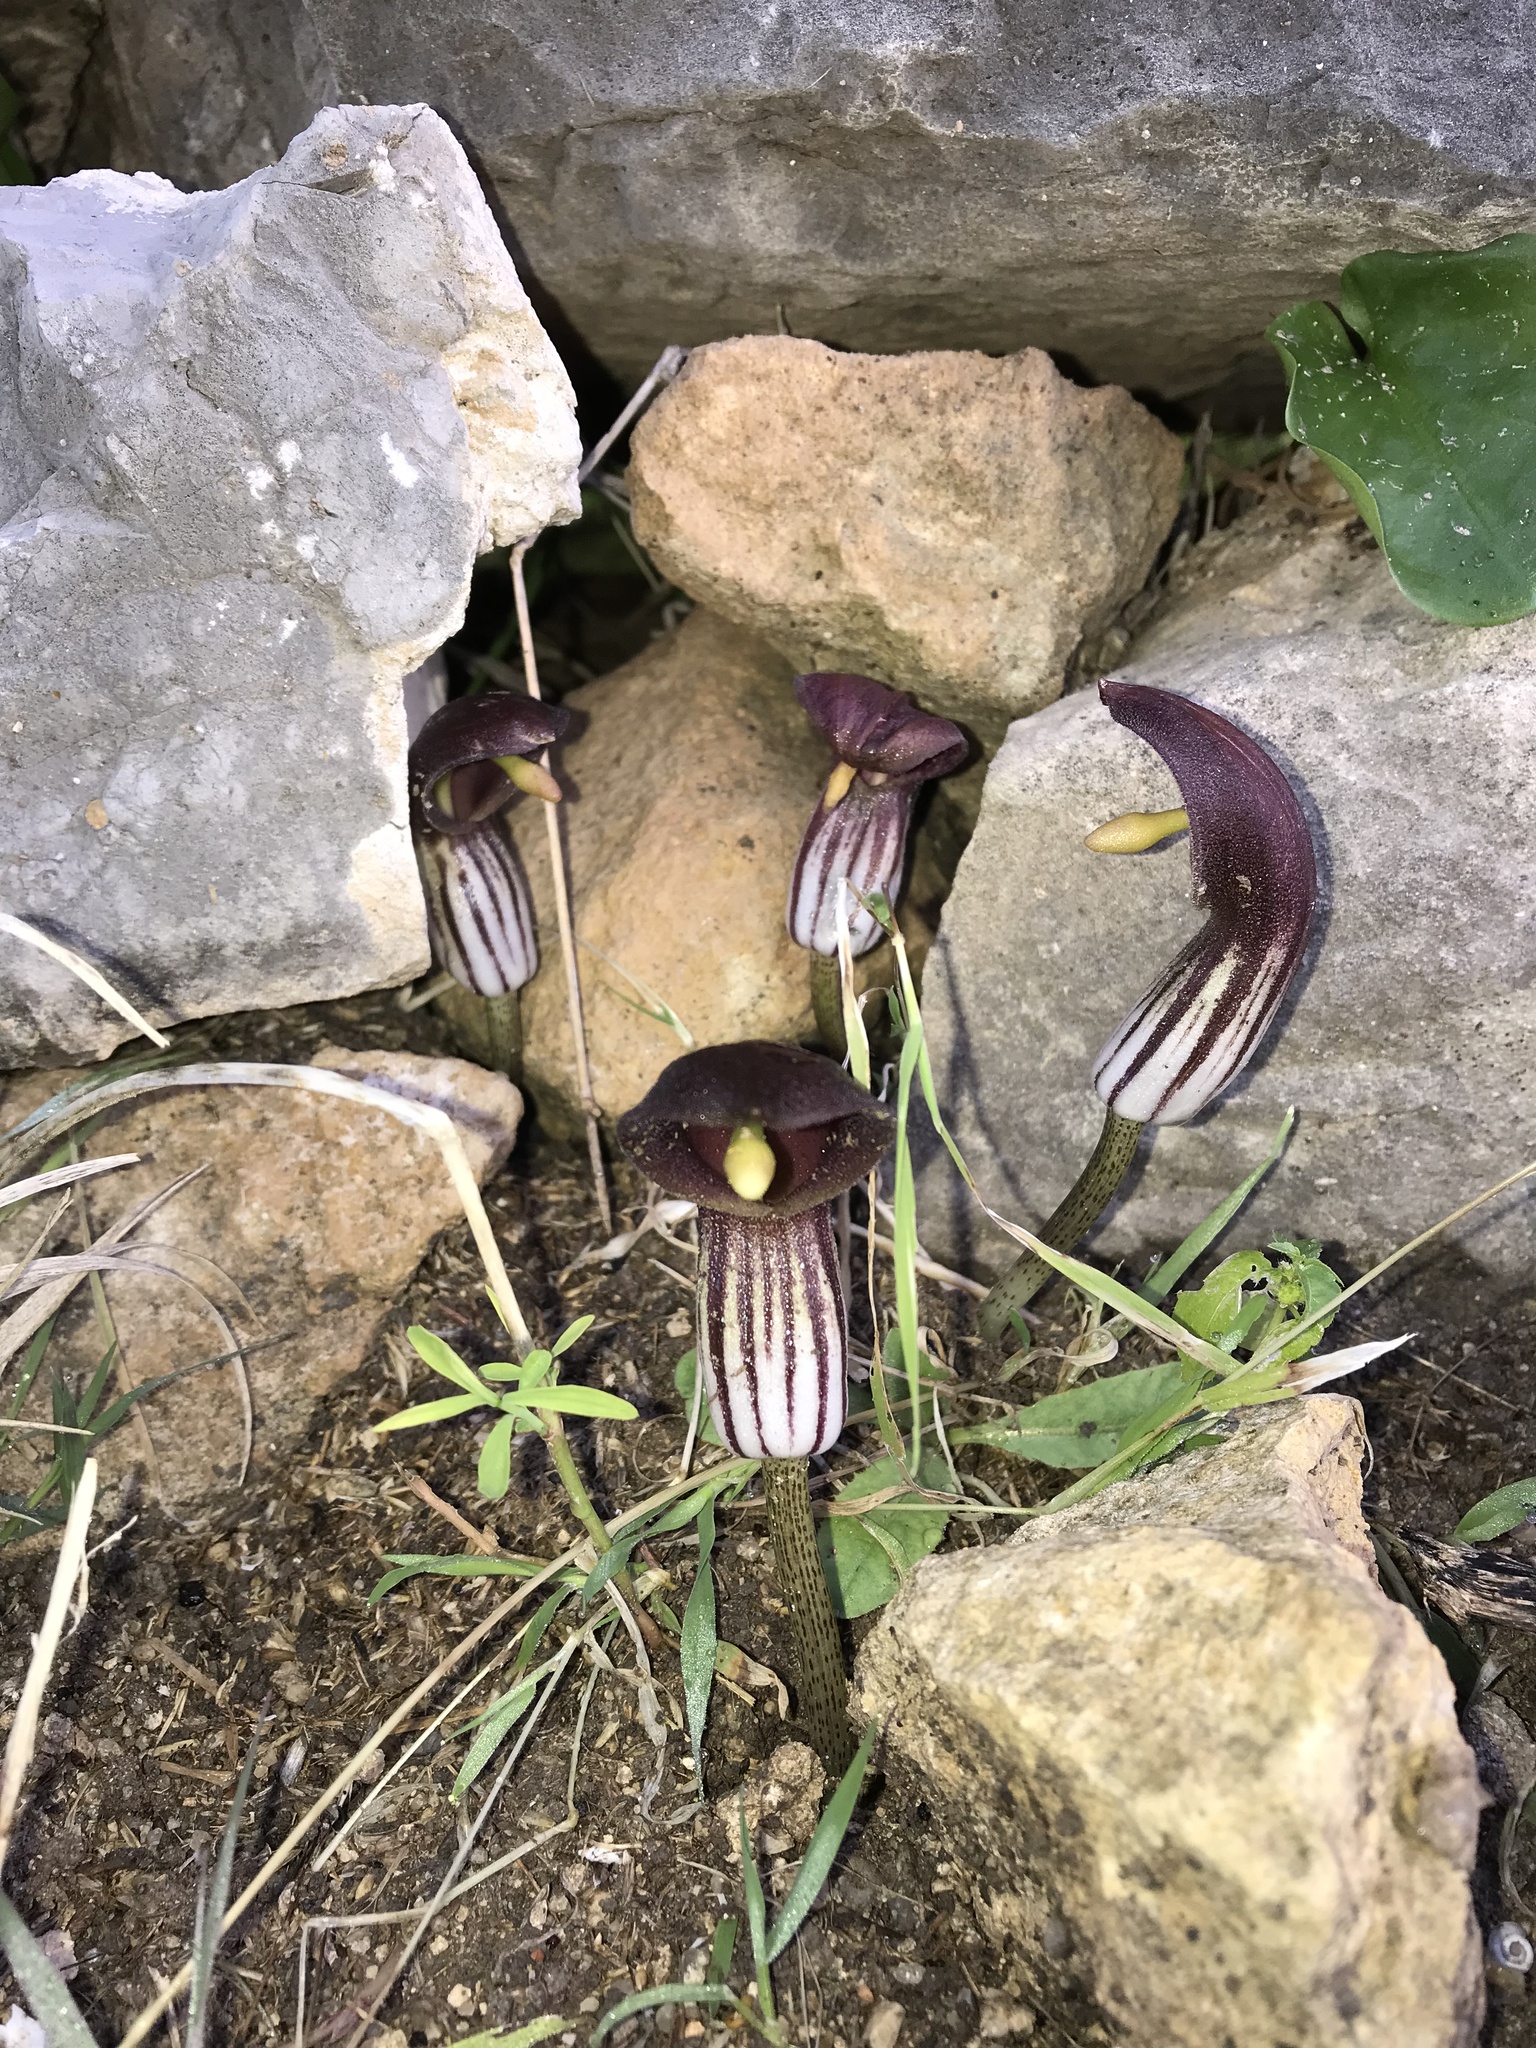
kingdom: Plantae
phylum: Tracheophyta
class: Liliopsida
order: Alismatales
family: Araceae
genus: Arisarum
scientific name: Arisarum simorrhinum
